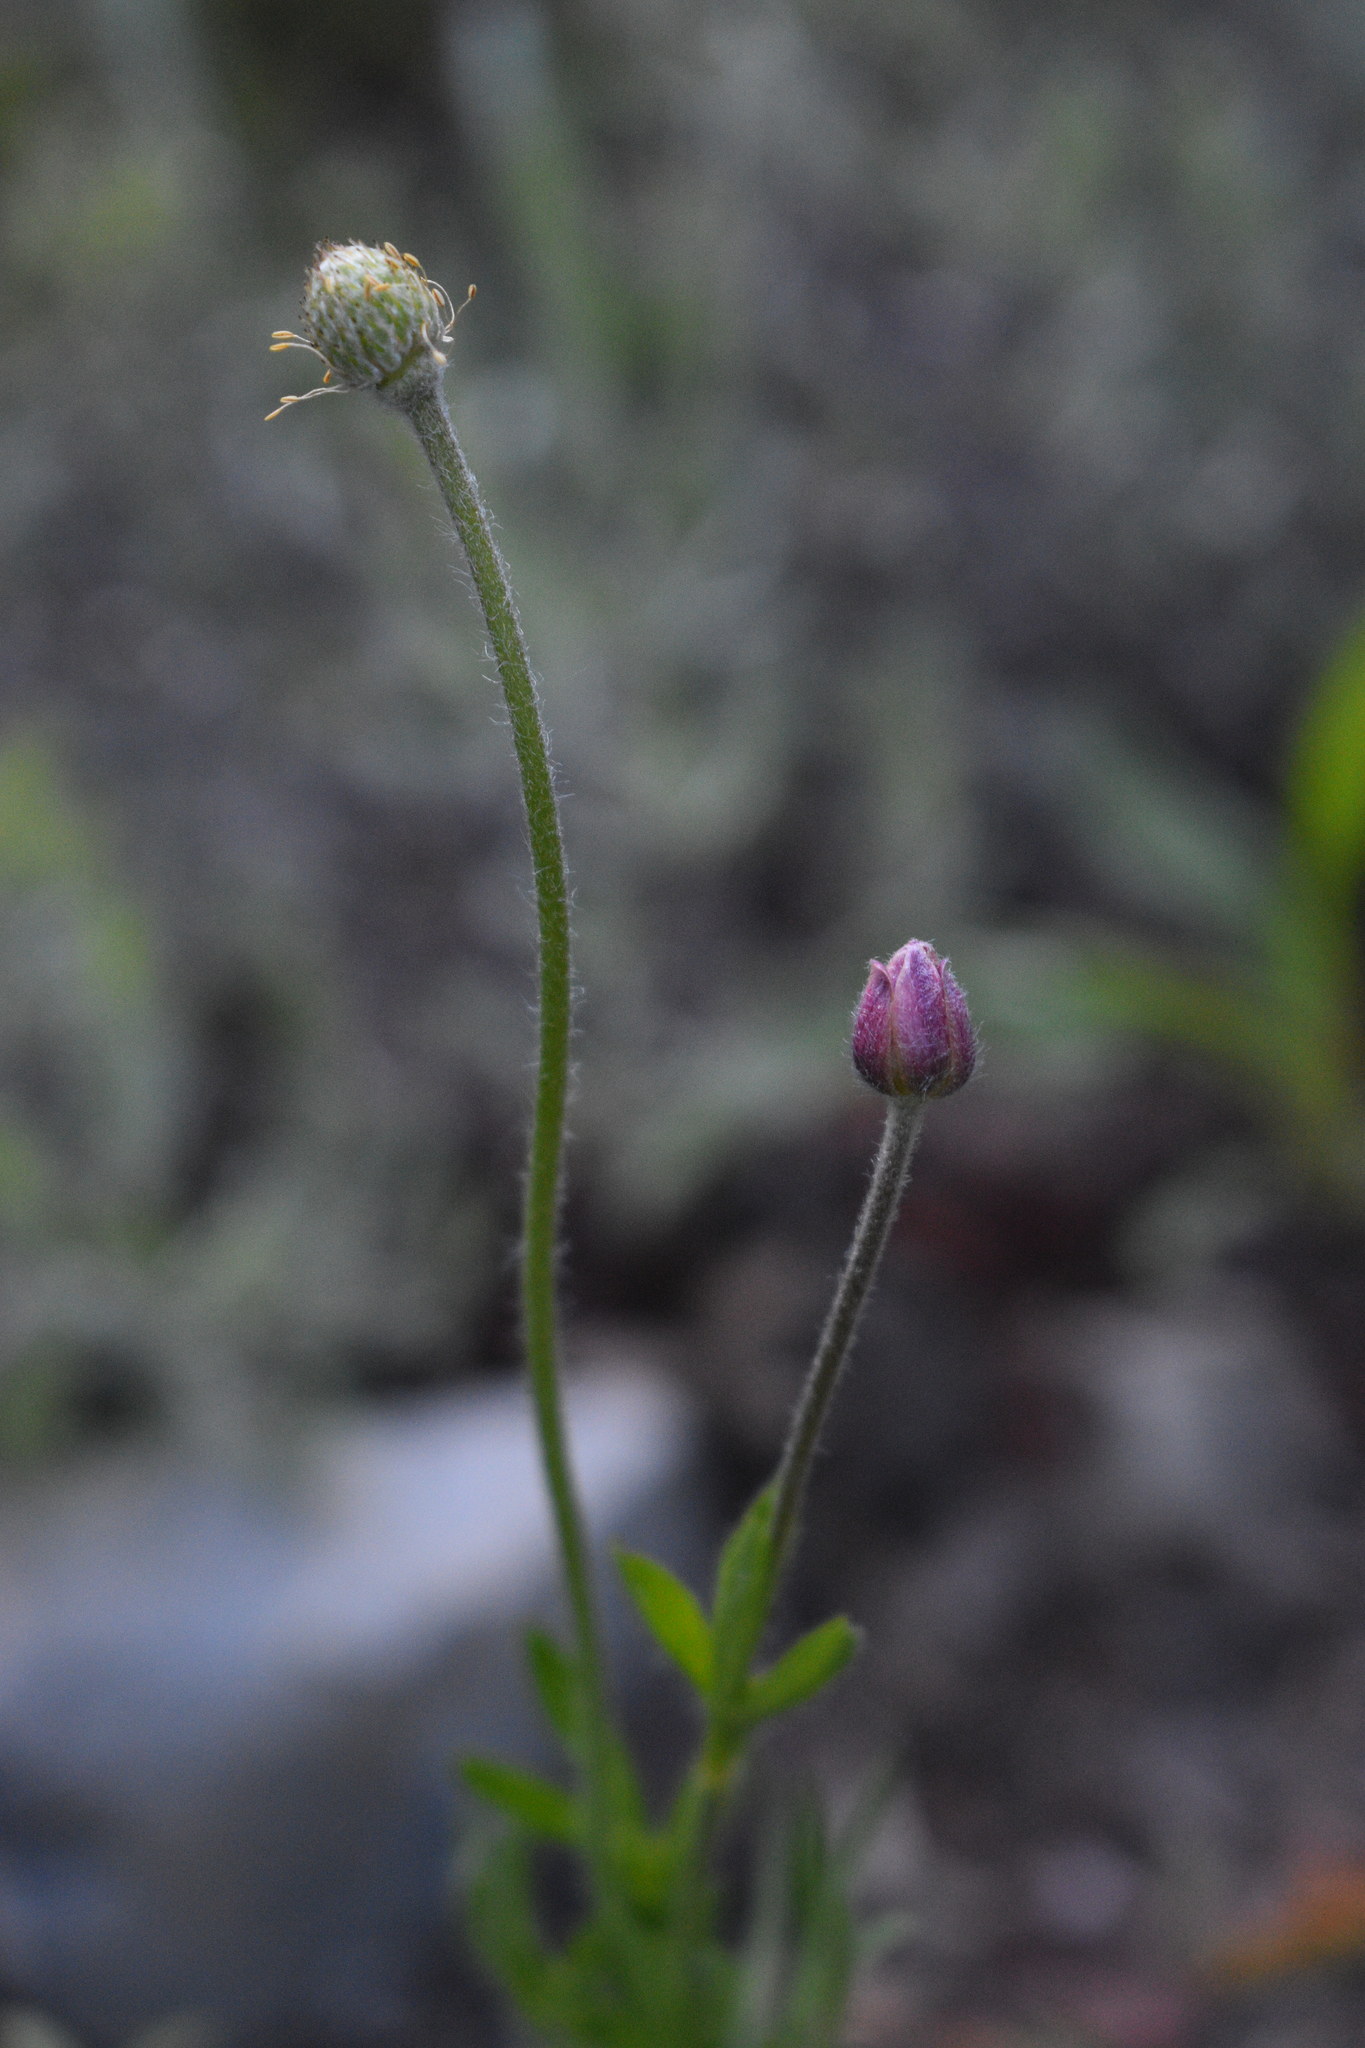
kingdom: Plantae
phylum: Tracheophyta
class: Magnoliopsida
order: Ranunculales
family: Ranunculaceae
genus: Anemone
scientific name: Anemone multifida
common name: Bird's-foot anemone
